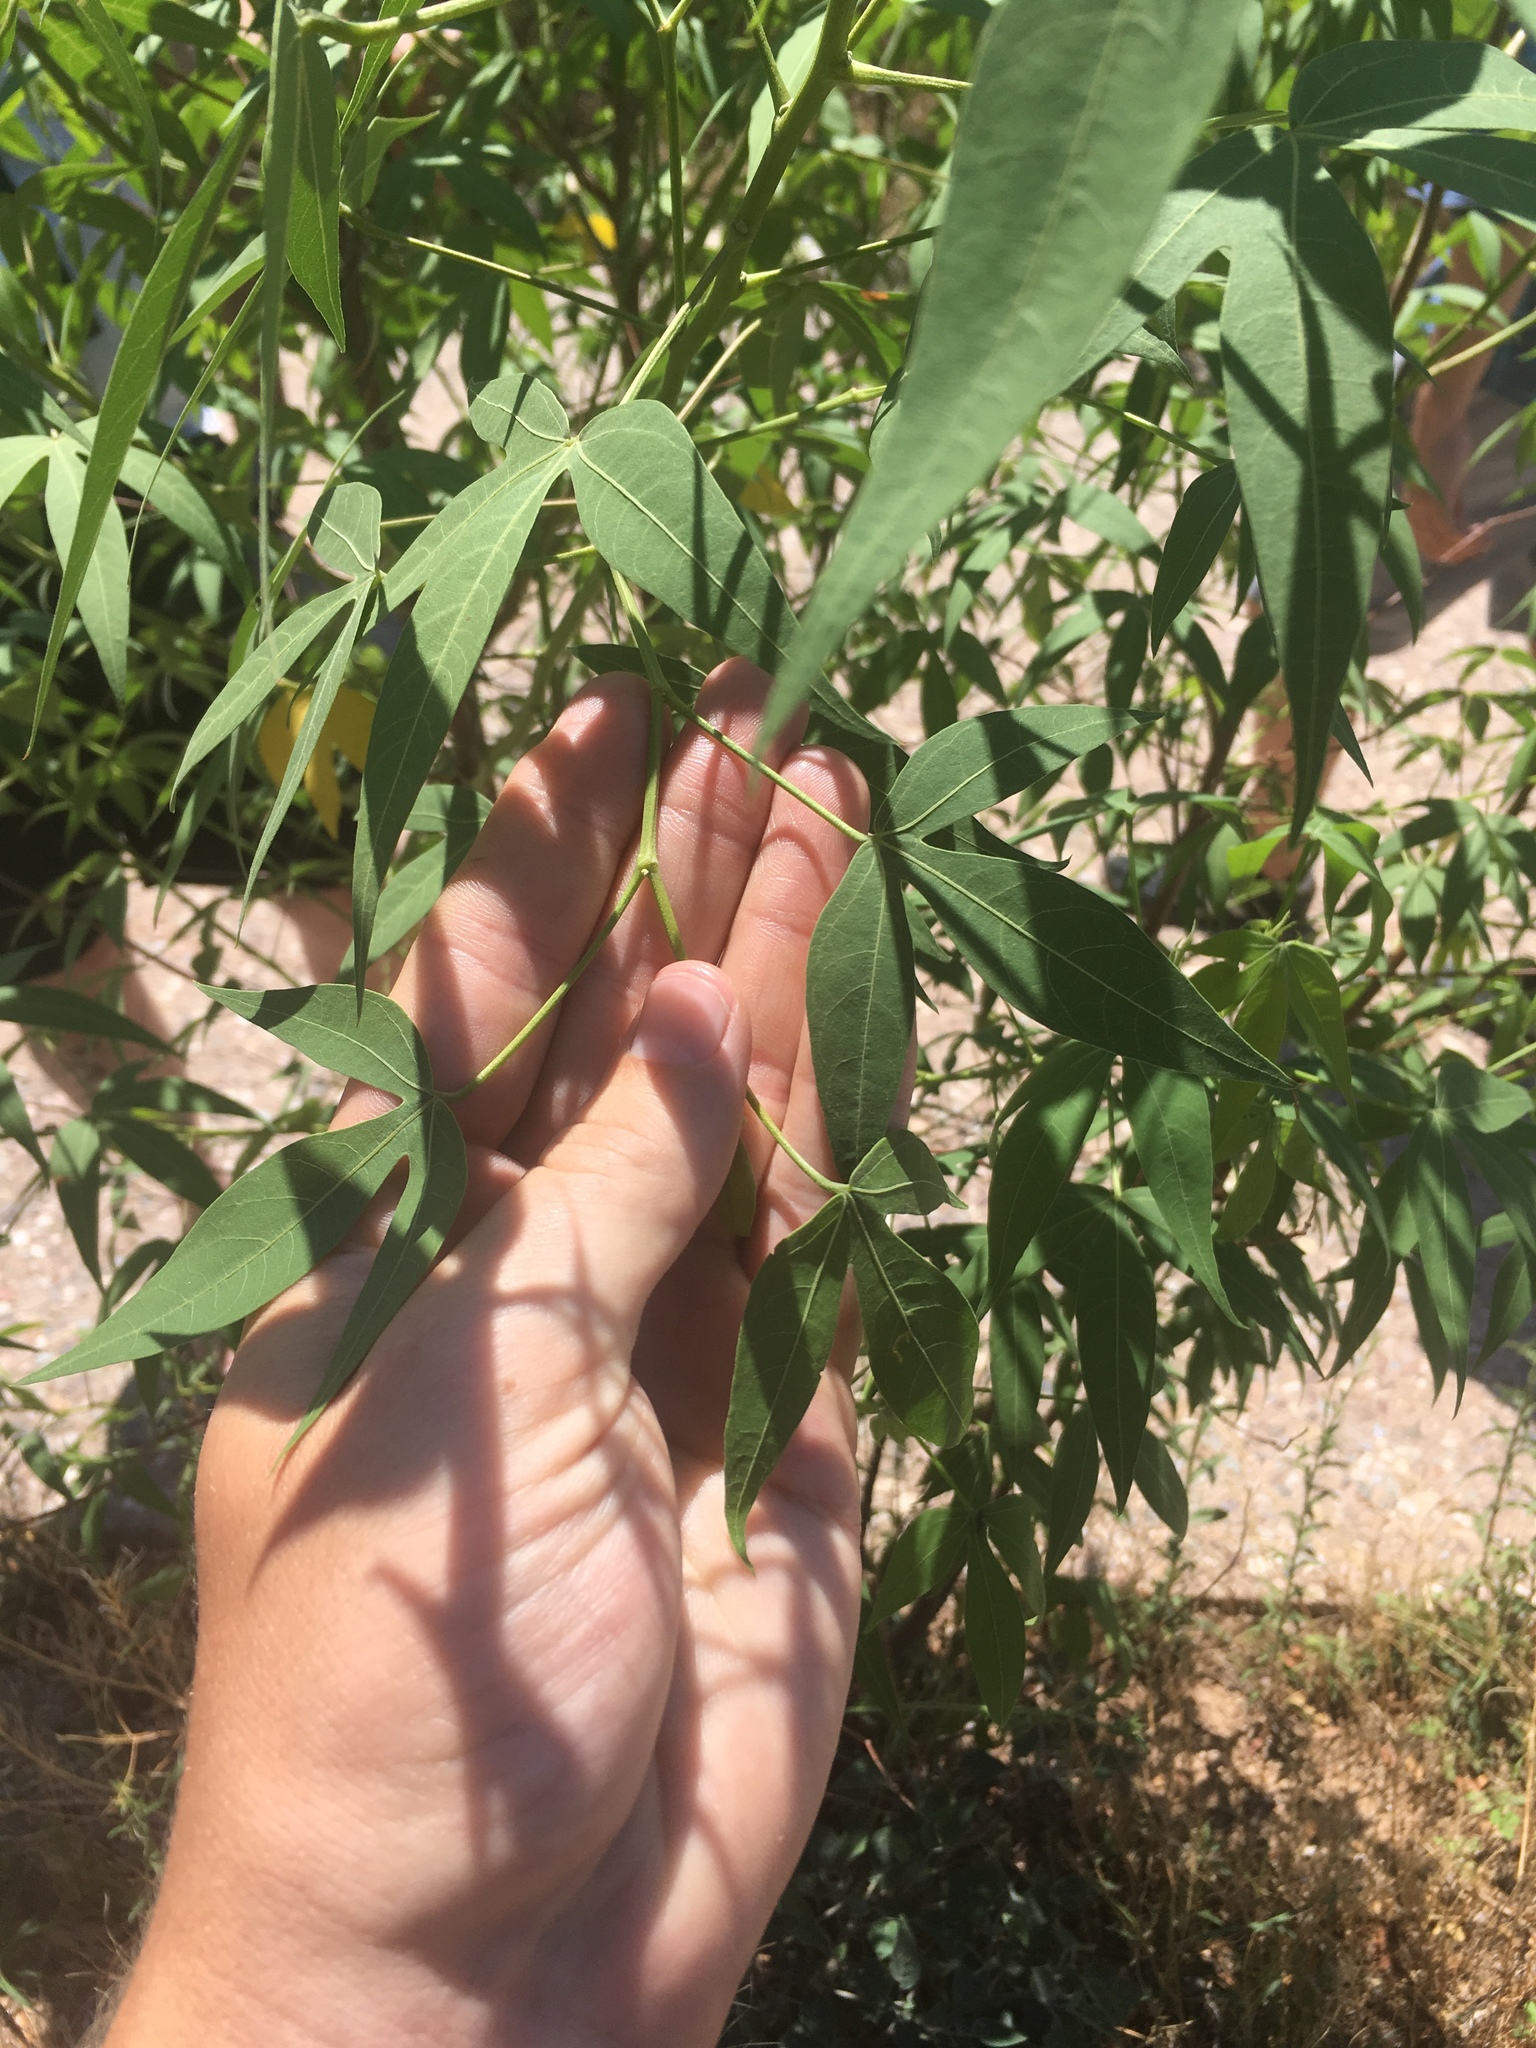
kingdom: Plantae
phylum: Tracheophyta
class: Magnoliopsida
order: Malvales
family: Malvaceae
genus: Gossypium
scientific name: Gossypium thurberi
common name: Desert cotton
